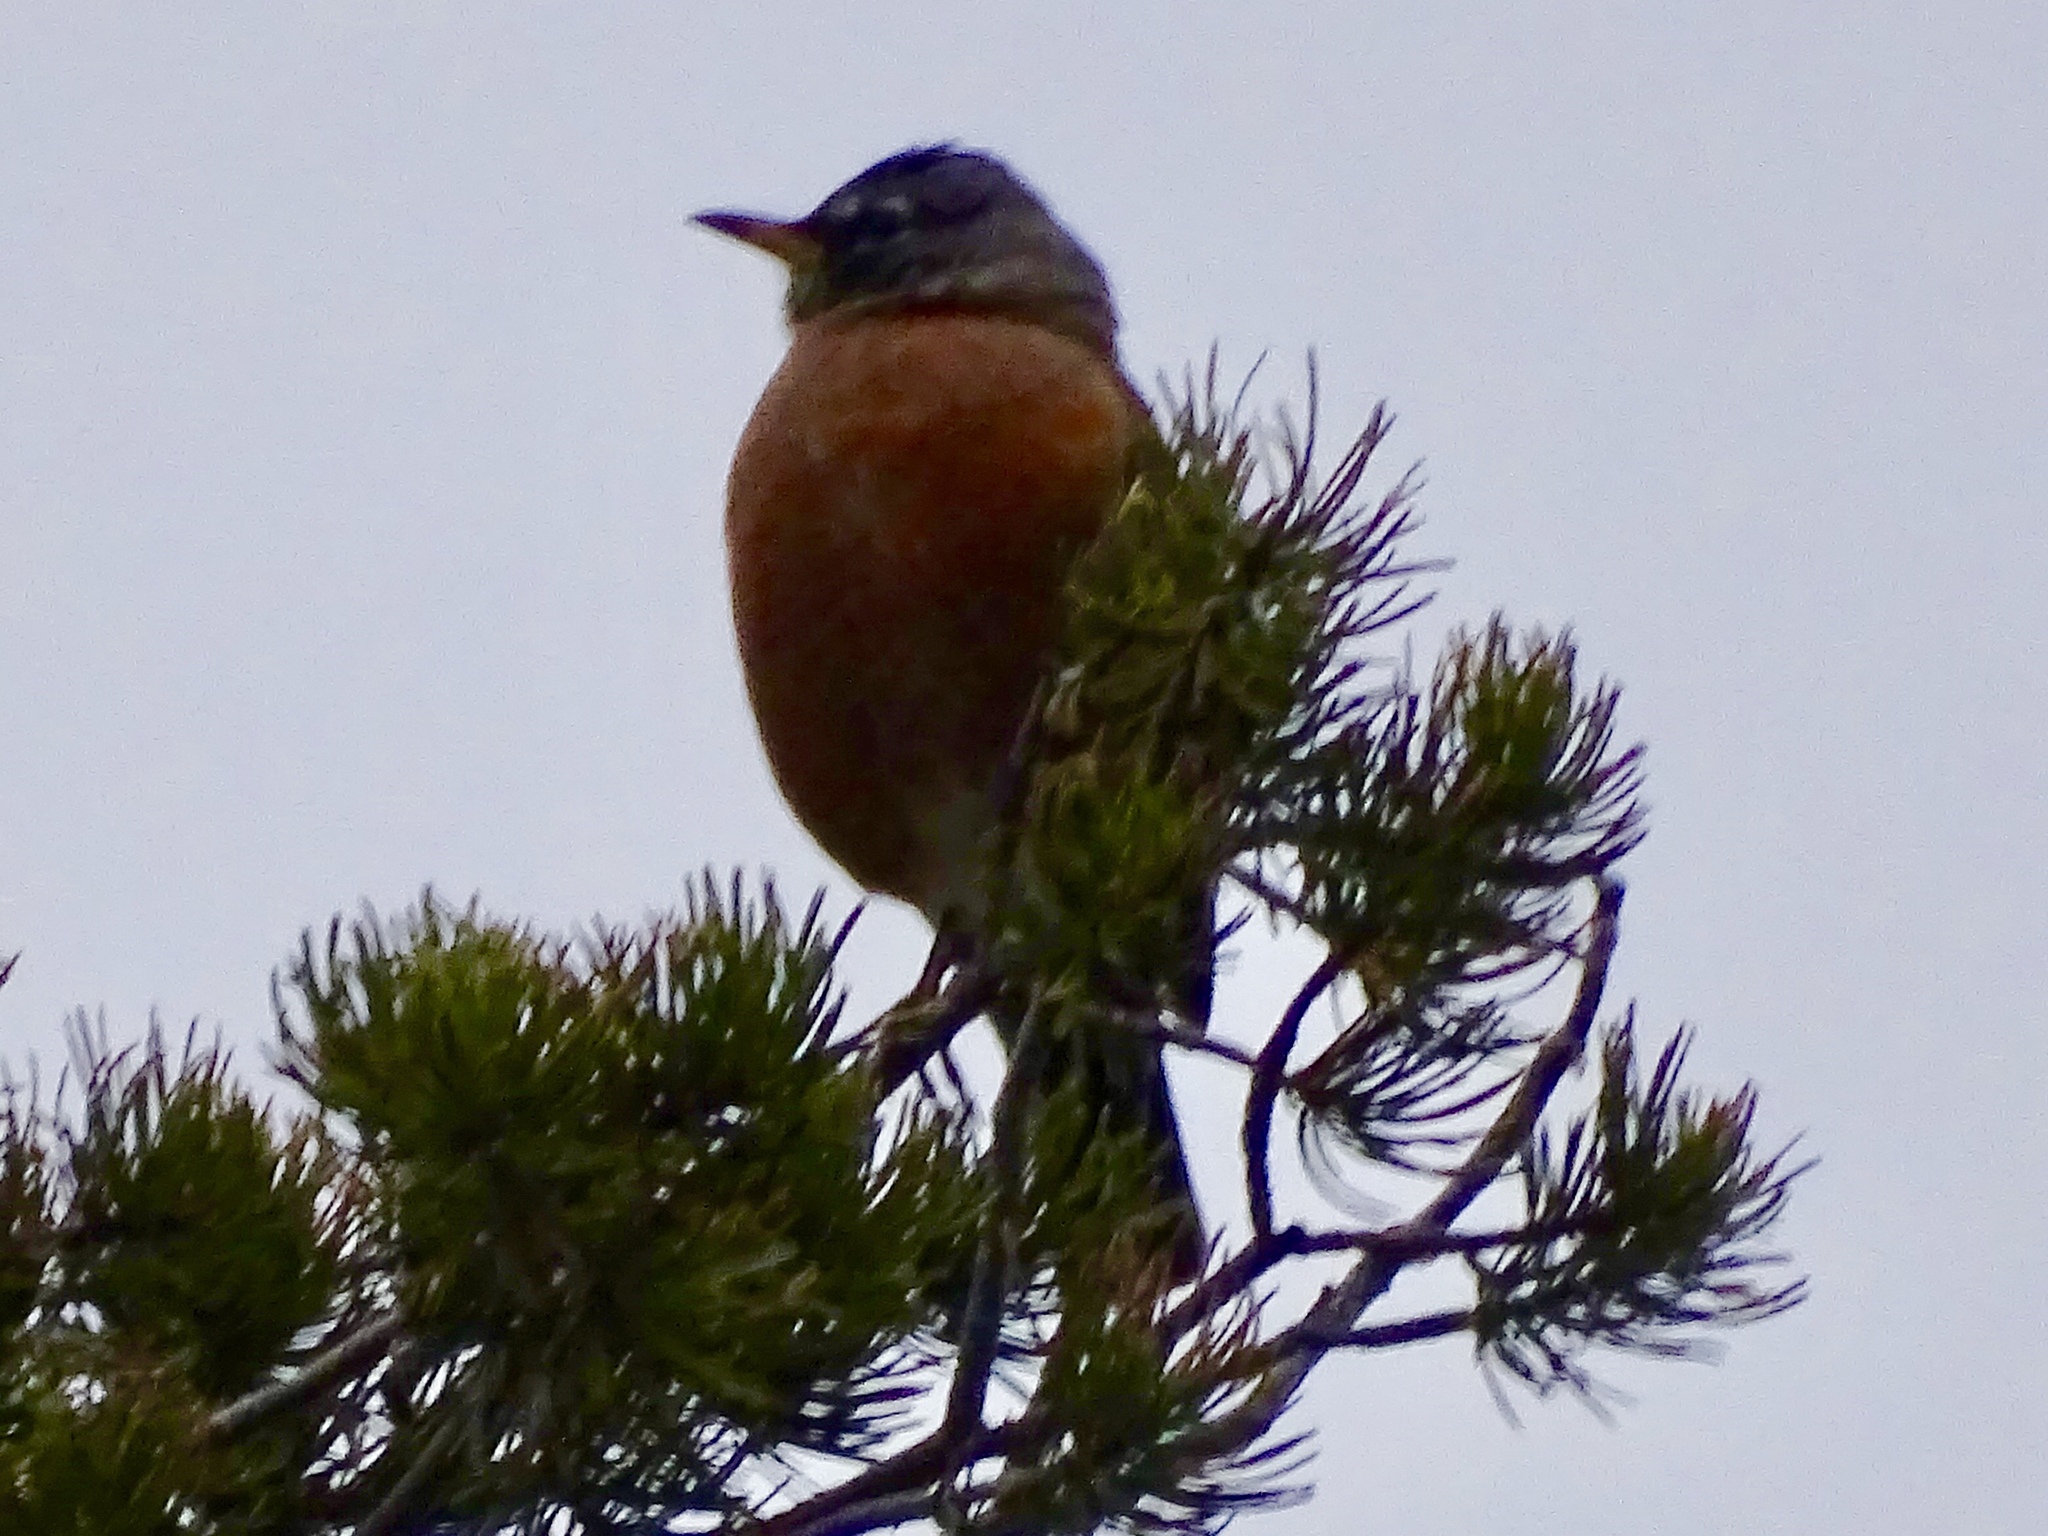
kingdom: Animalia
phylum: Chordata
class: Aves
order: Passeriformes
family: Turdidae
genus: Turdus
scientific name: Turdus migratorius
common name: American robin
